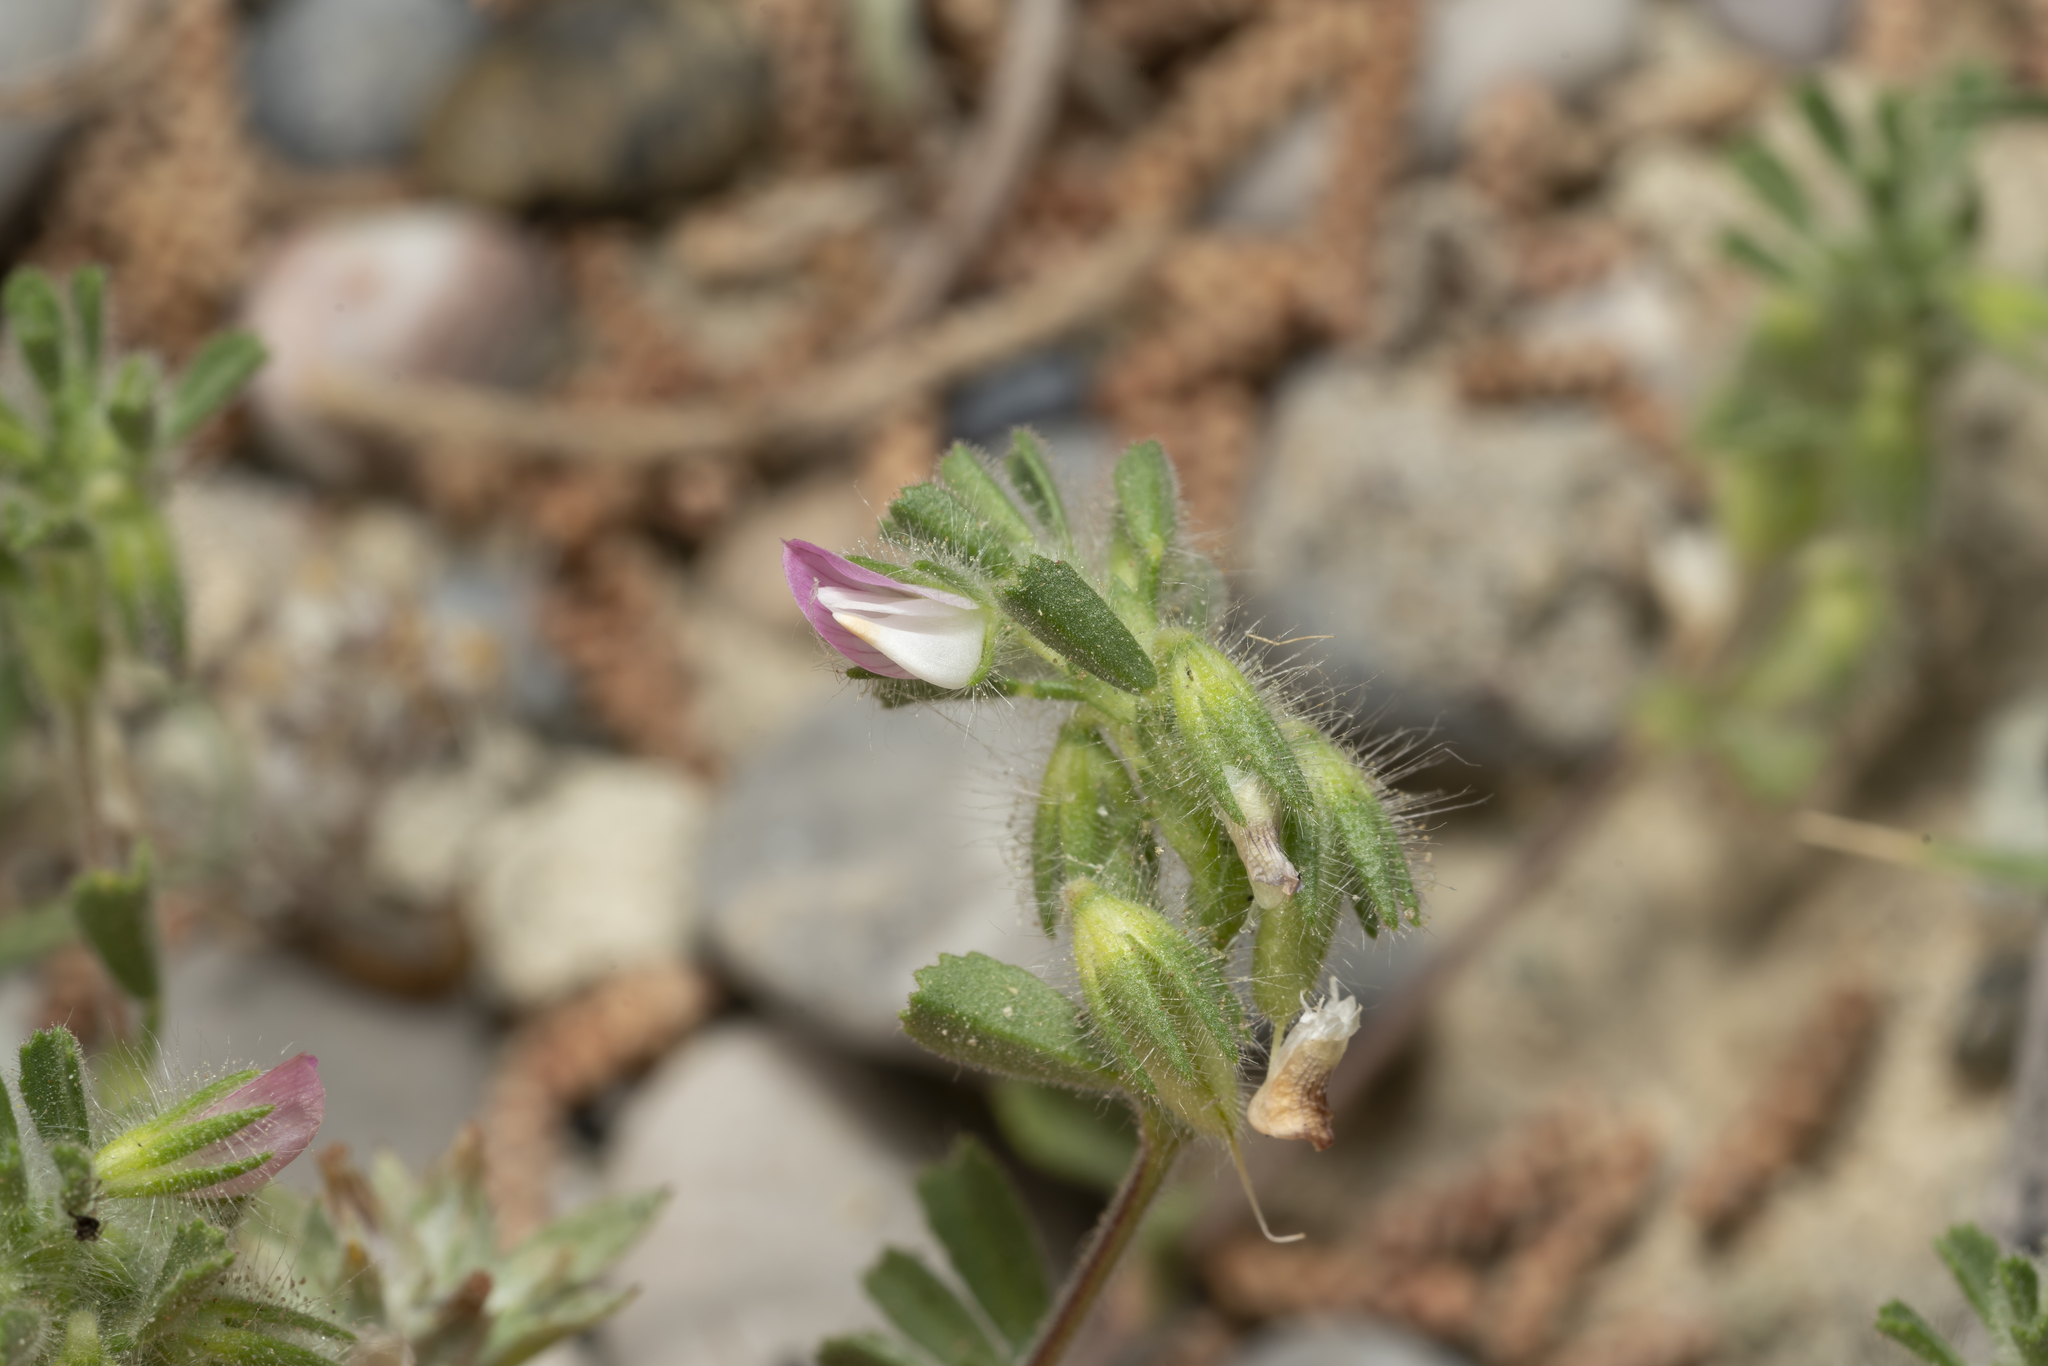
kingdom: Plantae
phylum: Tracheophyta
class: Magnoliopsida
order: Fabales
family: Fabaceae
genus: Ononis
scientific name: Ononis reclinata
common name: Small restharrow
